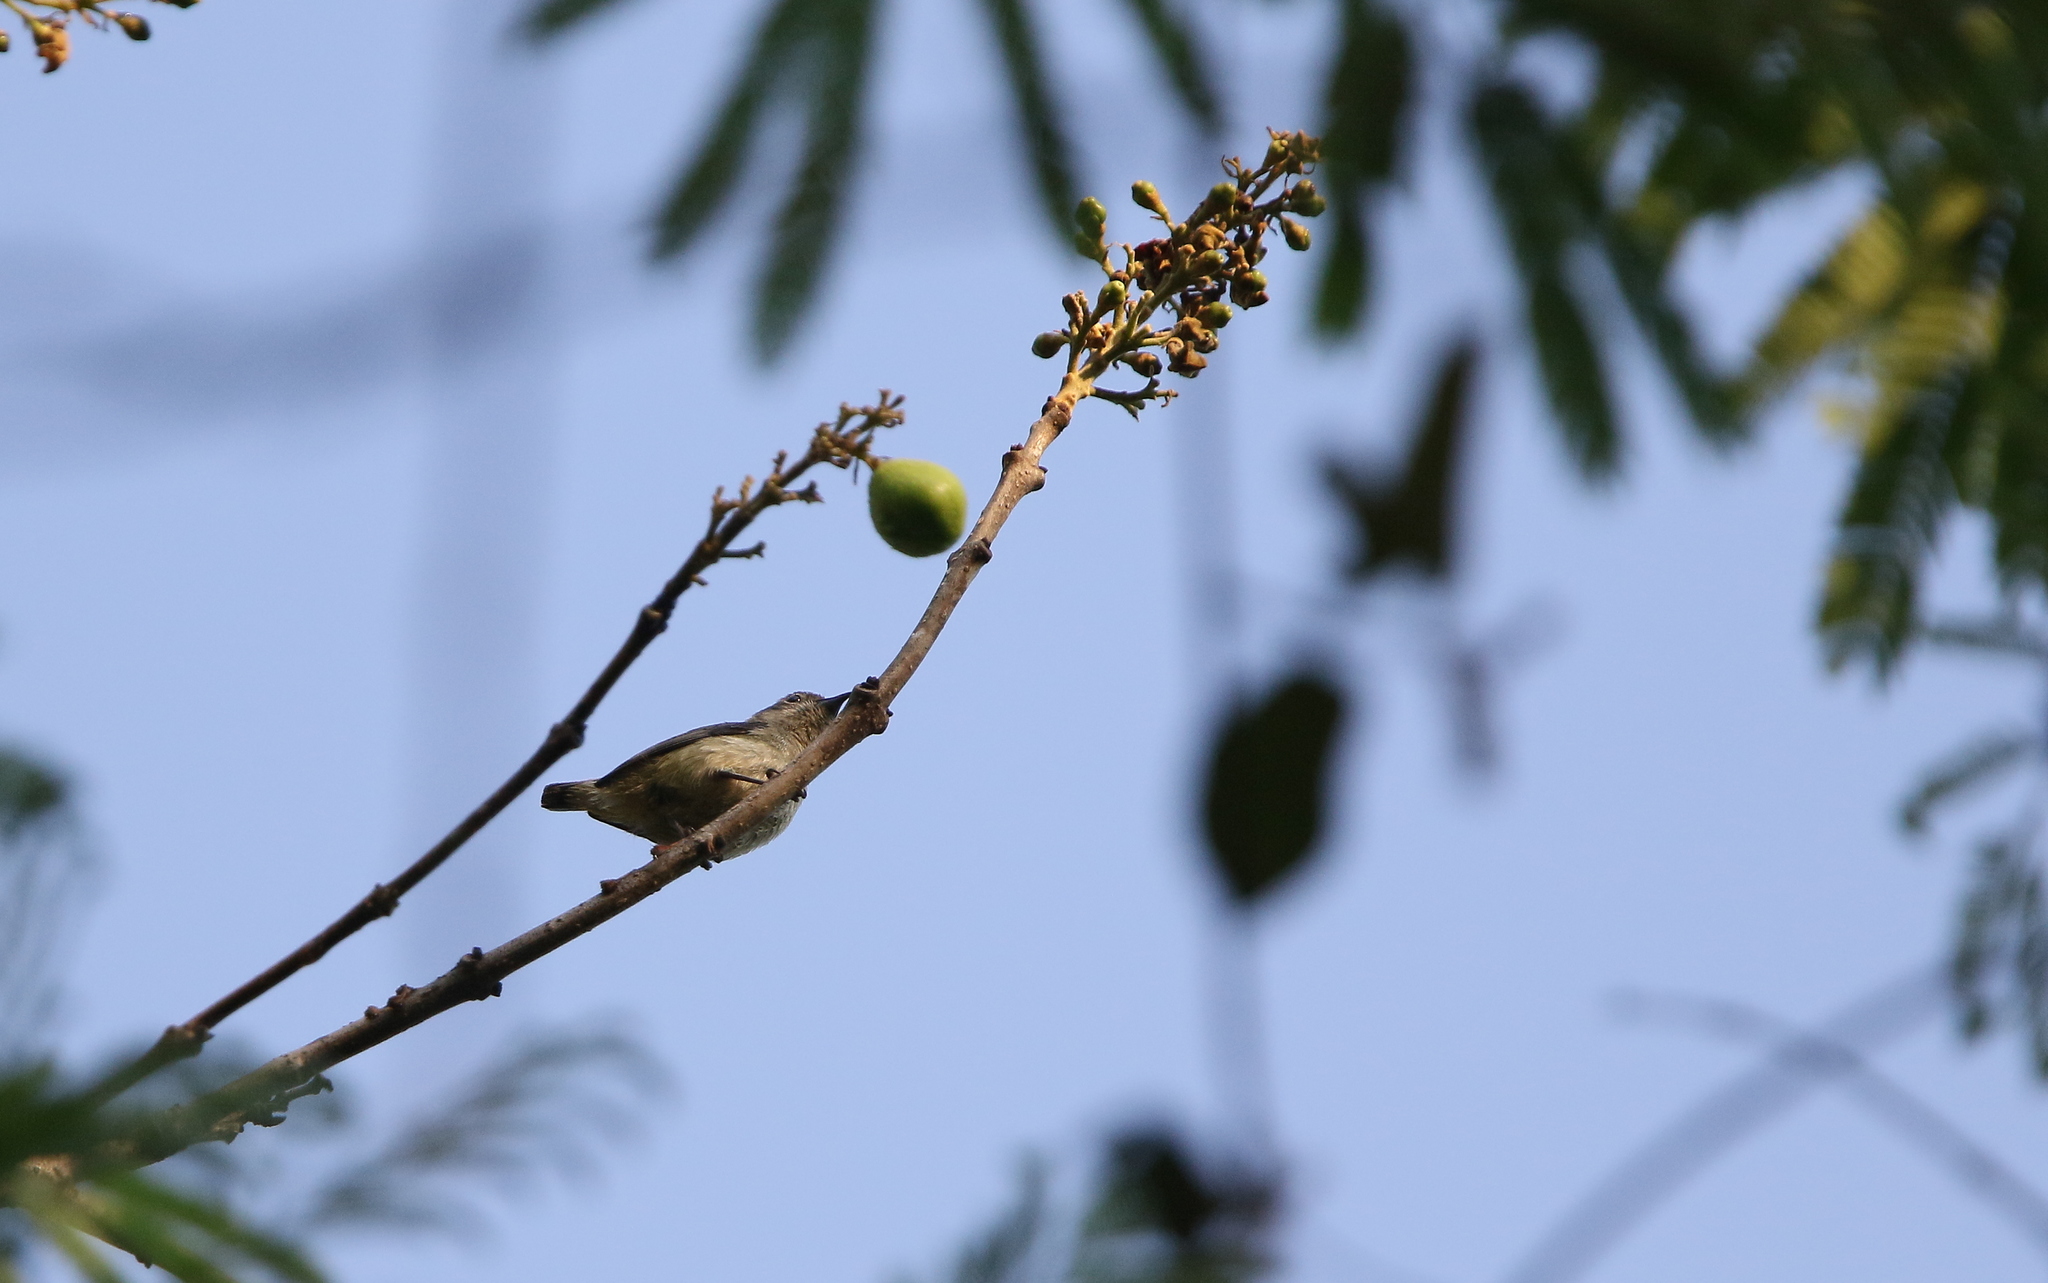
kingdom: Animalia
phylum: Chordata
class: Aves
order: Passeriformes
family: Dicaeidae
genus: Dicaeum
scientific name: Dicaeum ignipectus
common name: Fire-breasted flowerpecker
